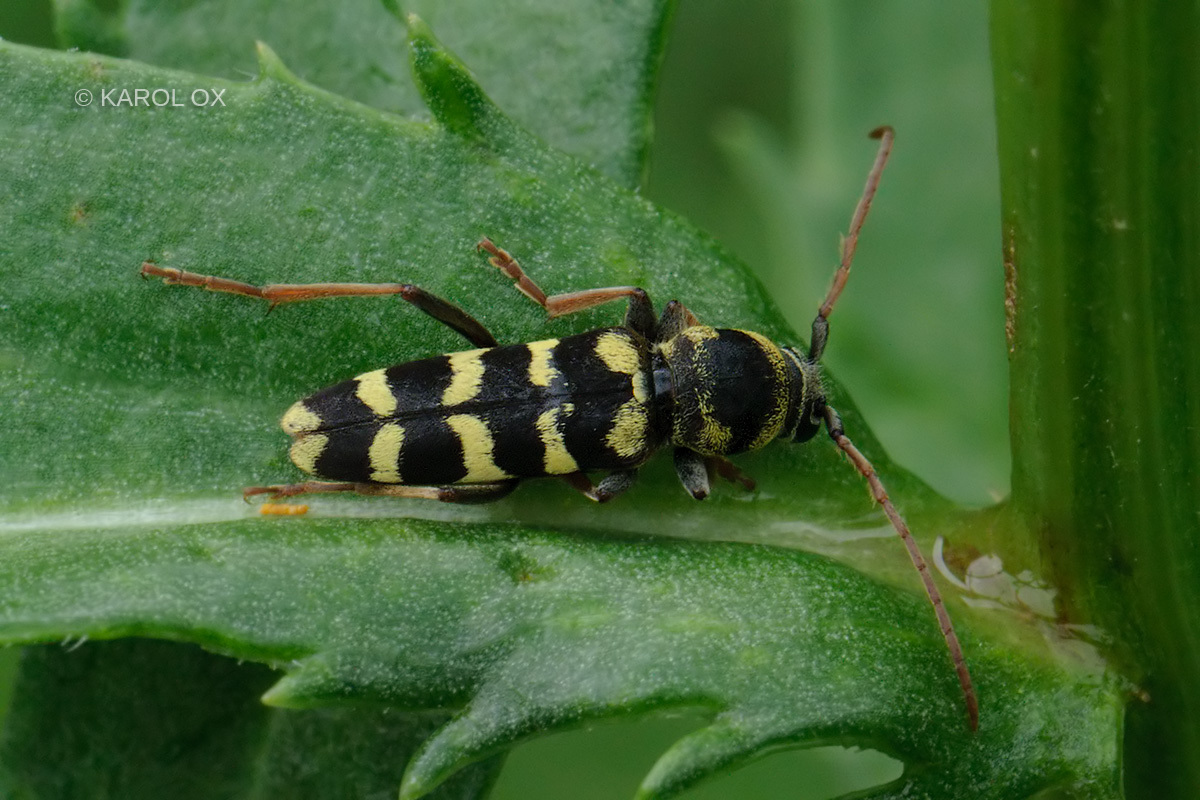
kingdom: Animalia
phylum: Arthropoda
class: Insecta
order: Coleoptera
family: Cerambycidae
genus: Plagionotus
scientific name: Plagionotus floralis
